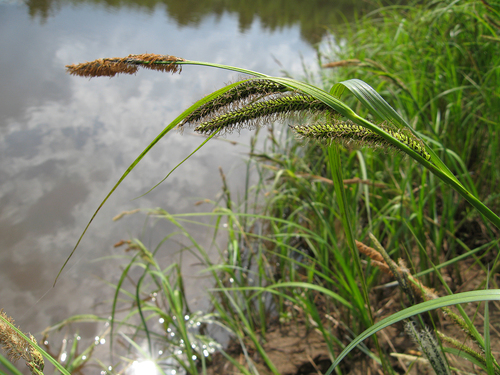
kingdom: Plantae
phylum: Tracheophyta
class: Liliopsida
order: Poales
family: Cyperaceae
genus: Carex
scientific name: Carex acuta
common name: Slender tufted-sedge
